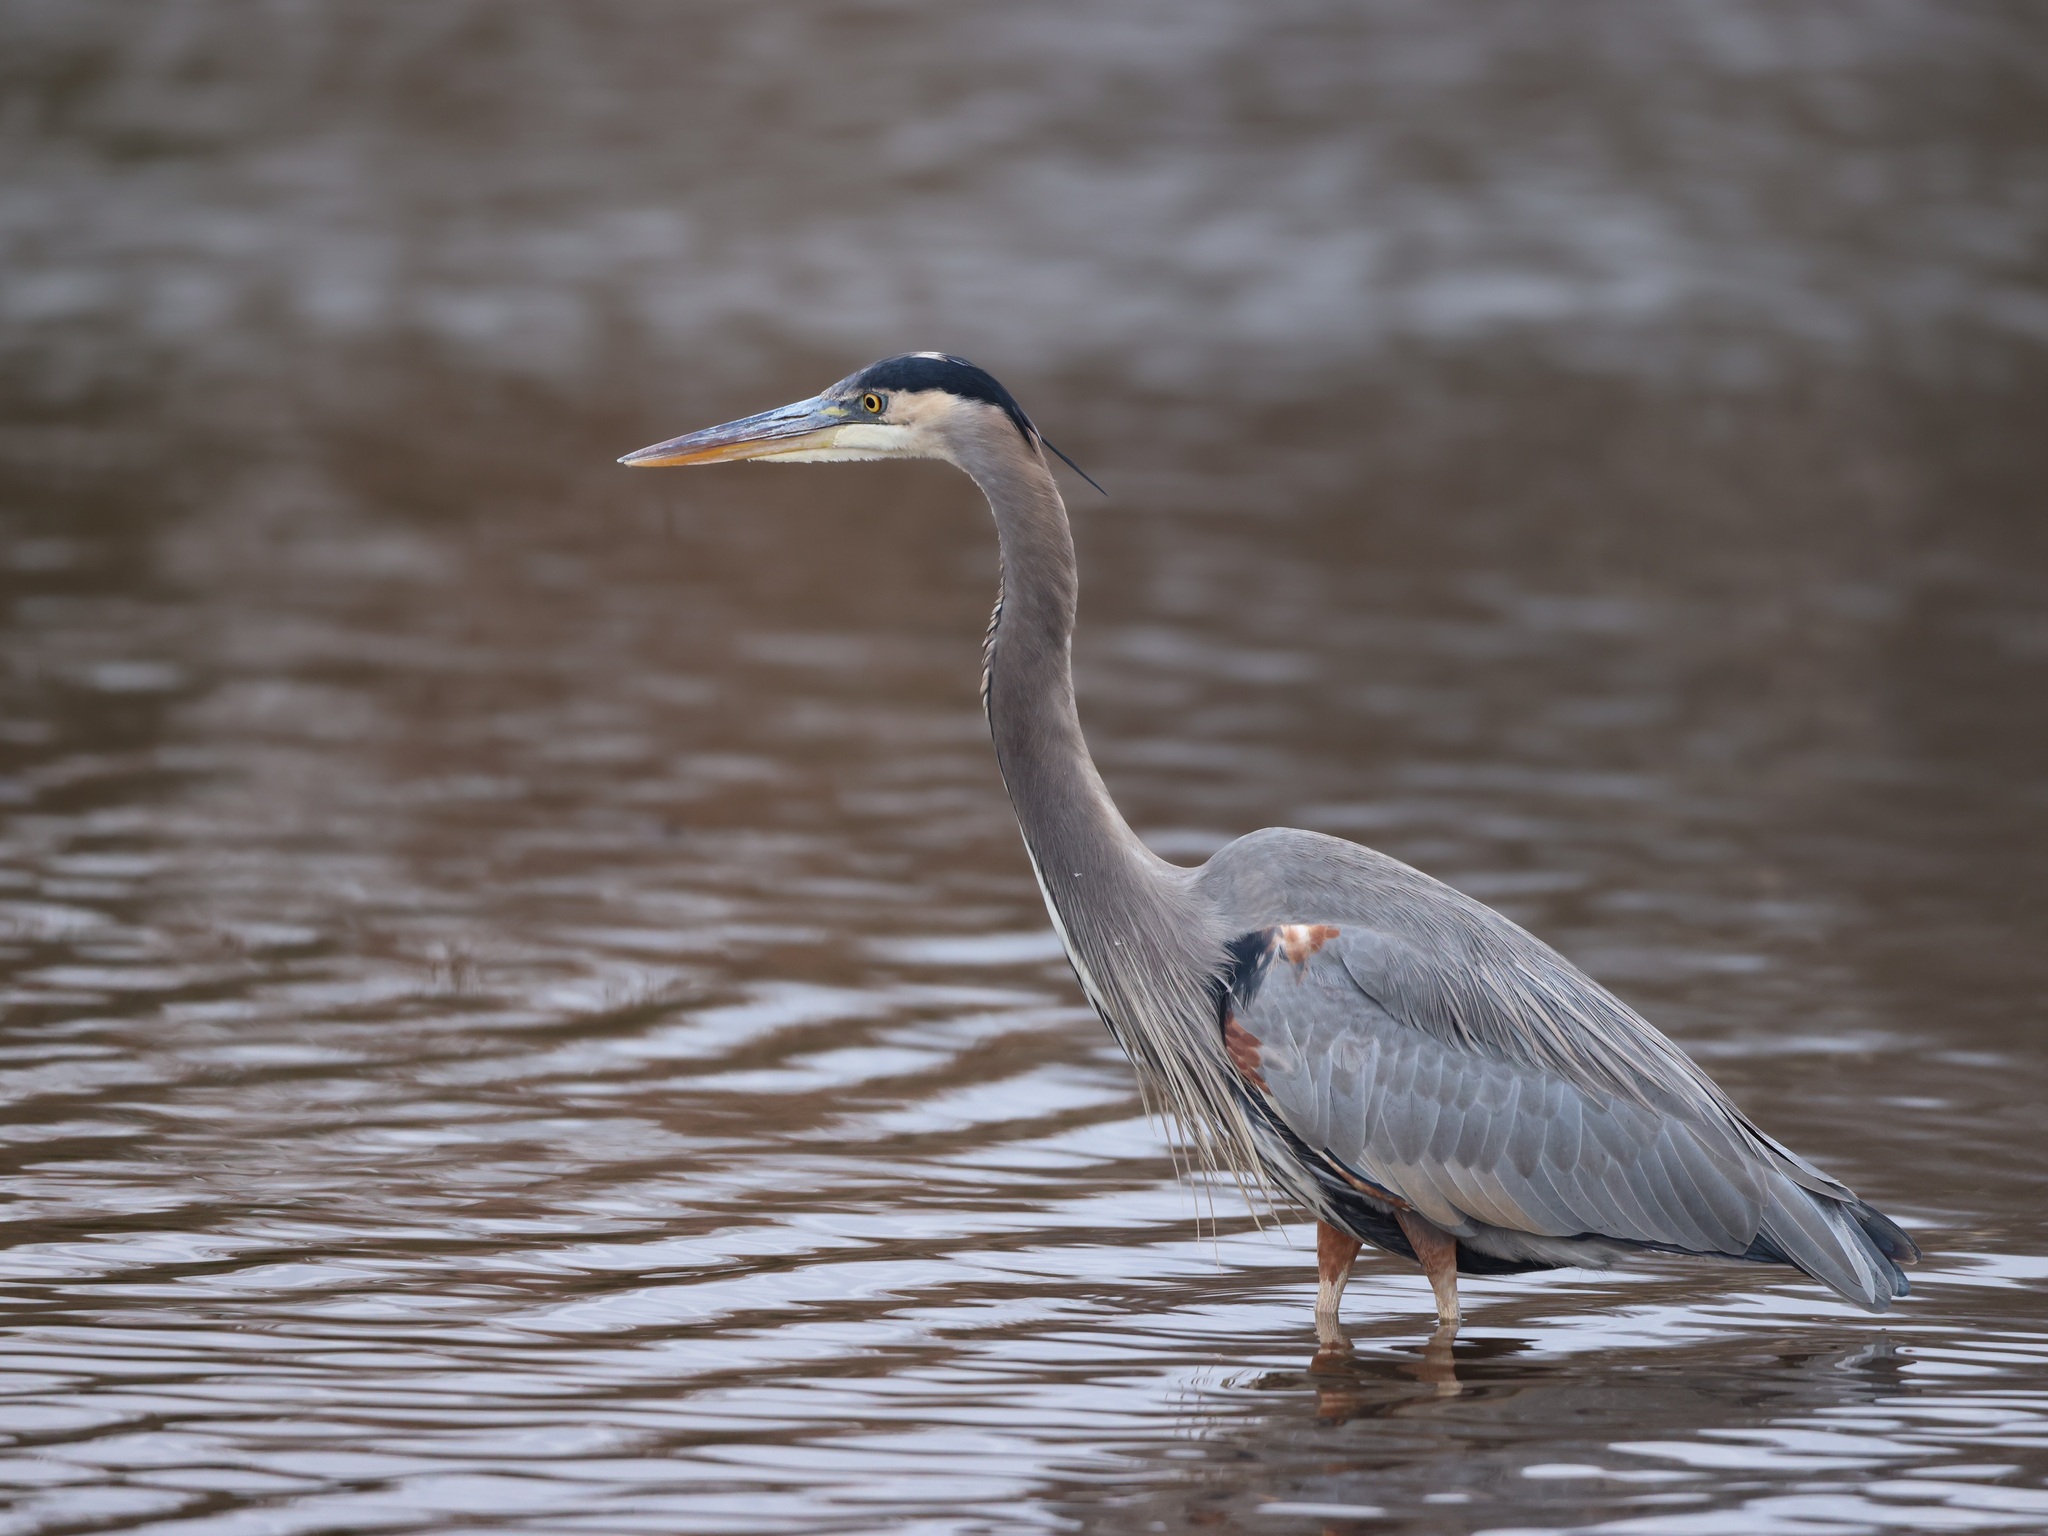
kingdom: Animalia
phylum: Chordata
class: Aves
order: Pelecaniformes
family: Ardeidae
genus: Ardea
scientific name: Ardea herodias
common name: Great blue heron
